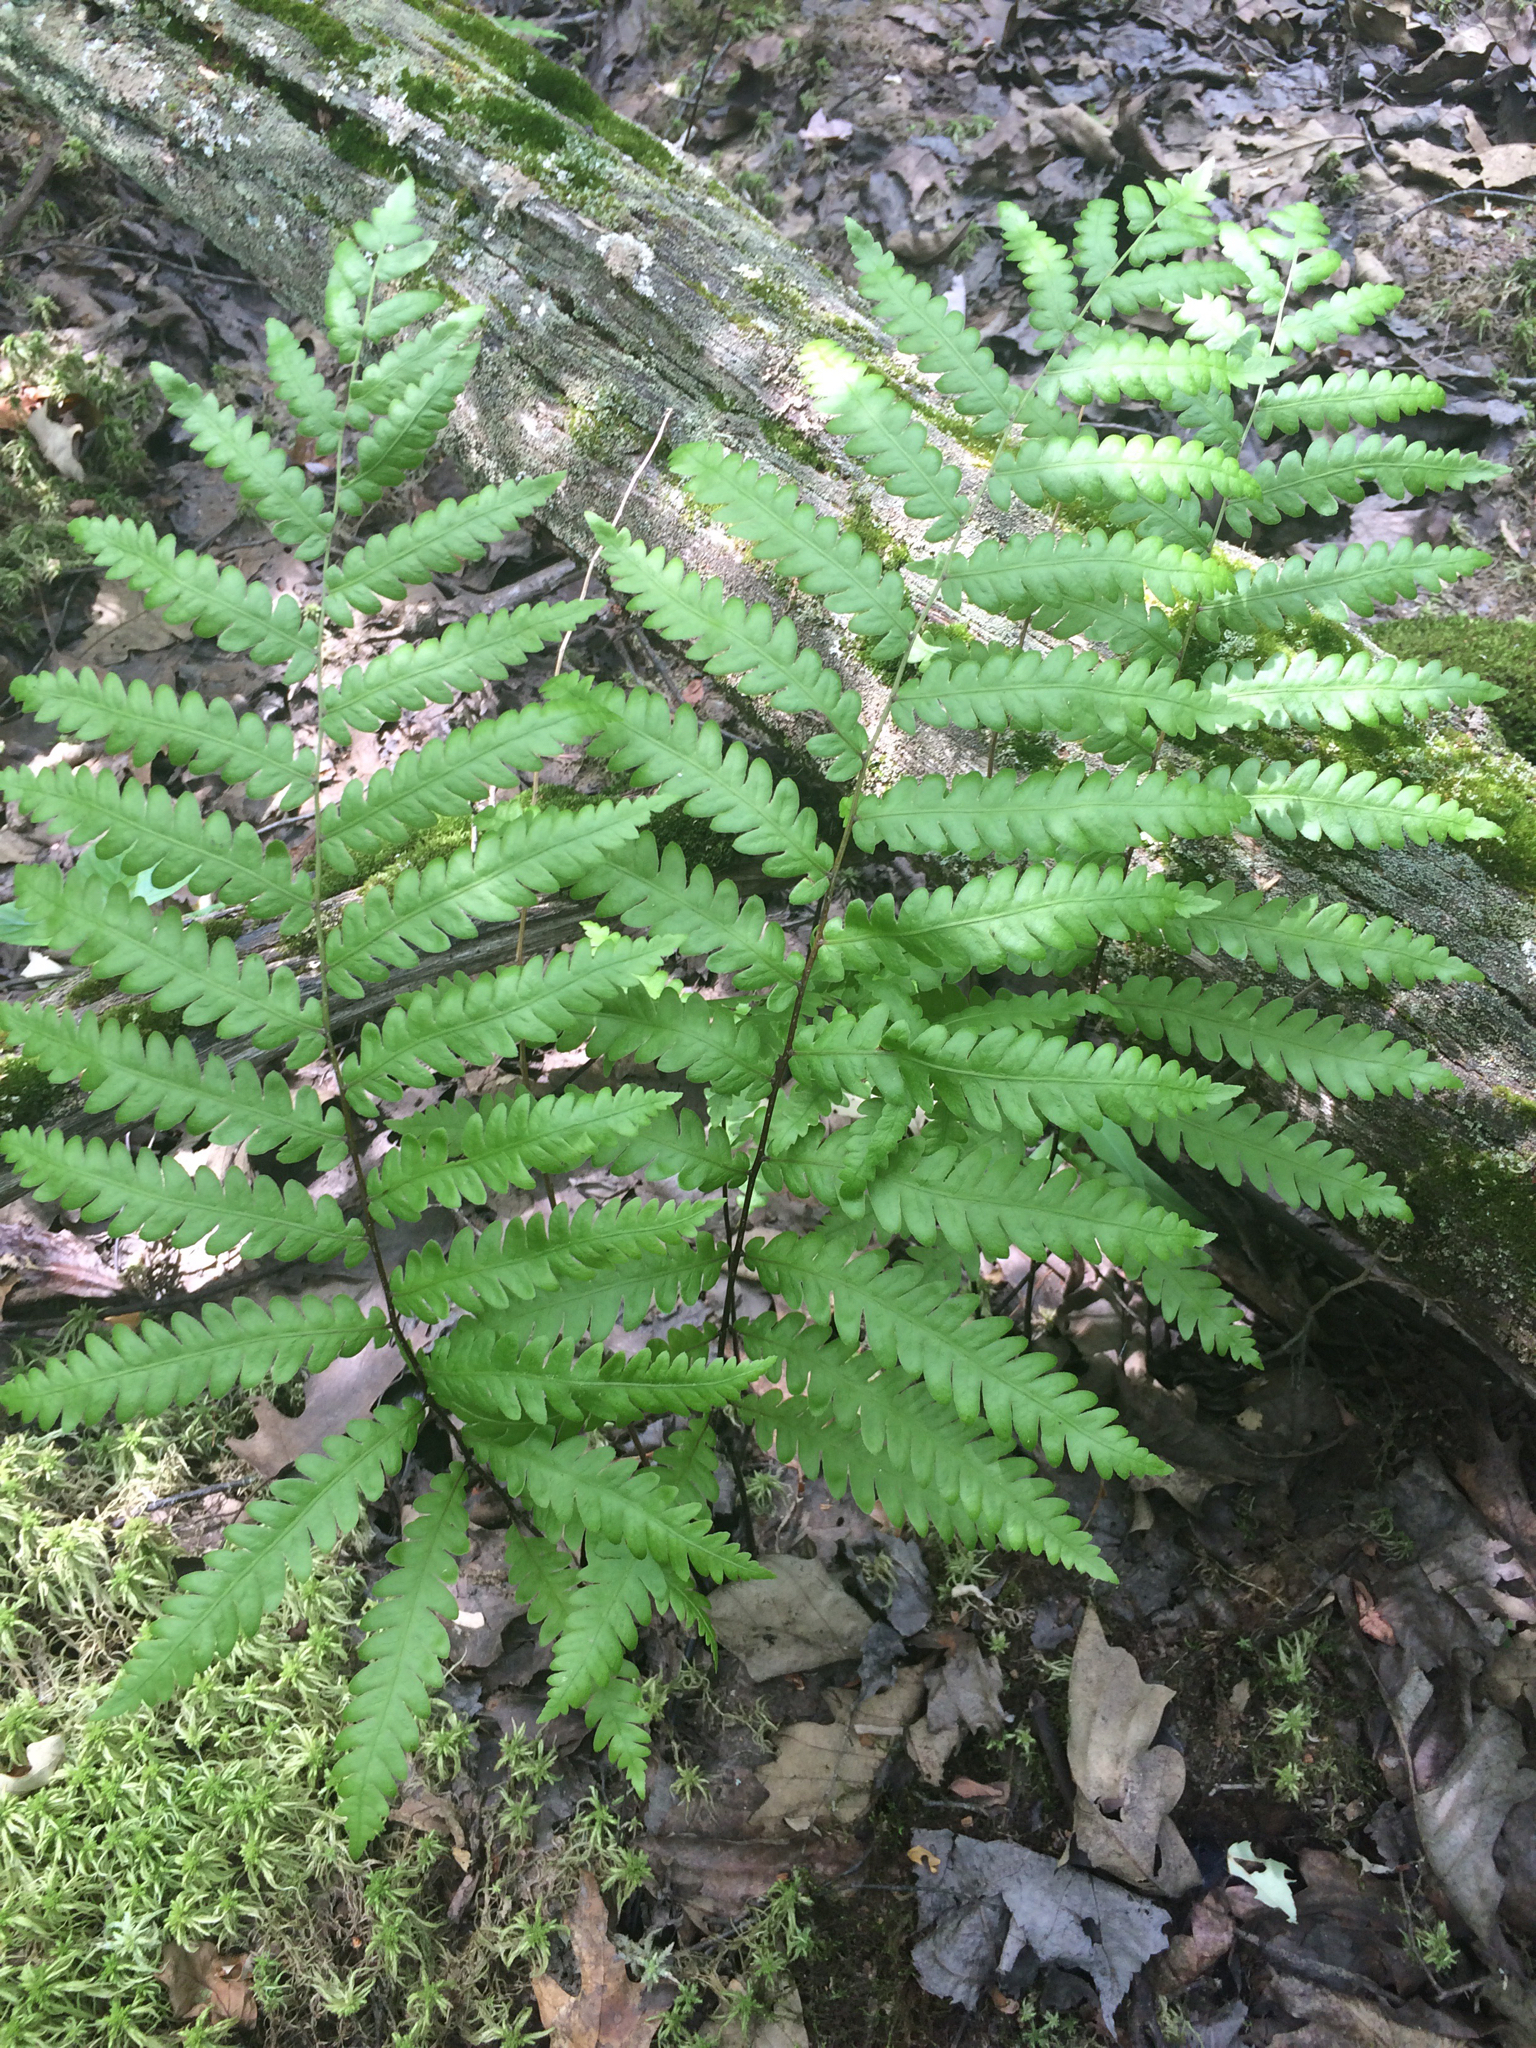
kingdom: Plantae
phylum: Tracheophyta
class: Polypodiopsida
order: Polypodiales
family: Blechnaceae
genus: Anchistea
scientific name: Anchistea virginica
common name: Virginia chain fern
